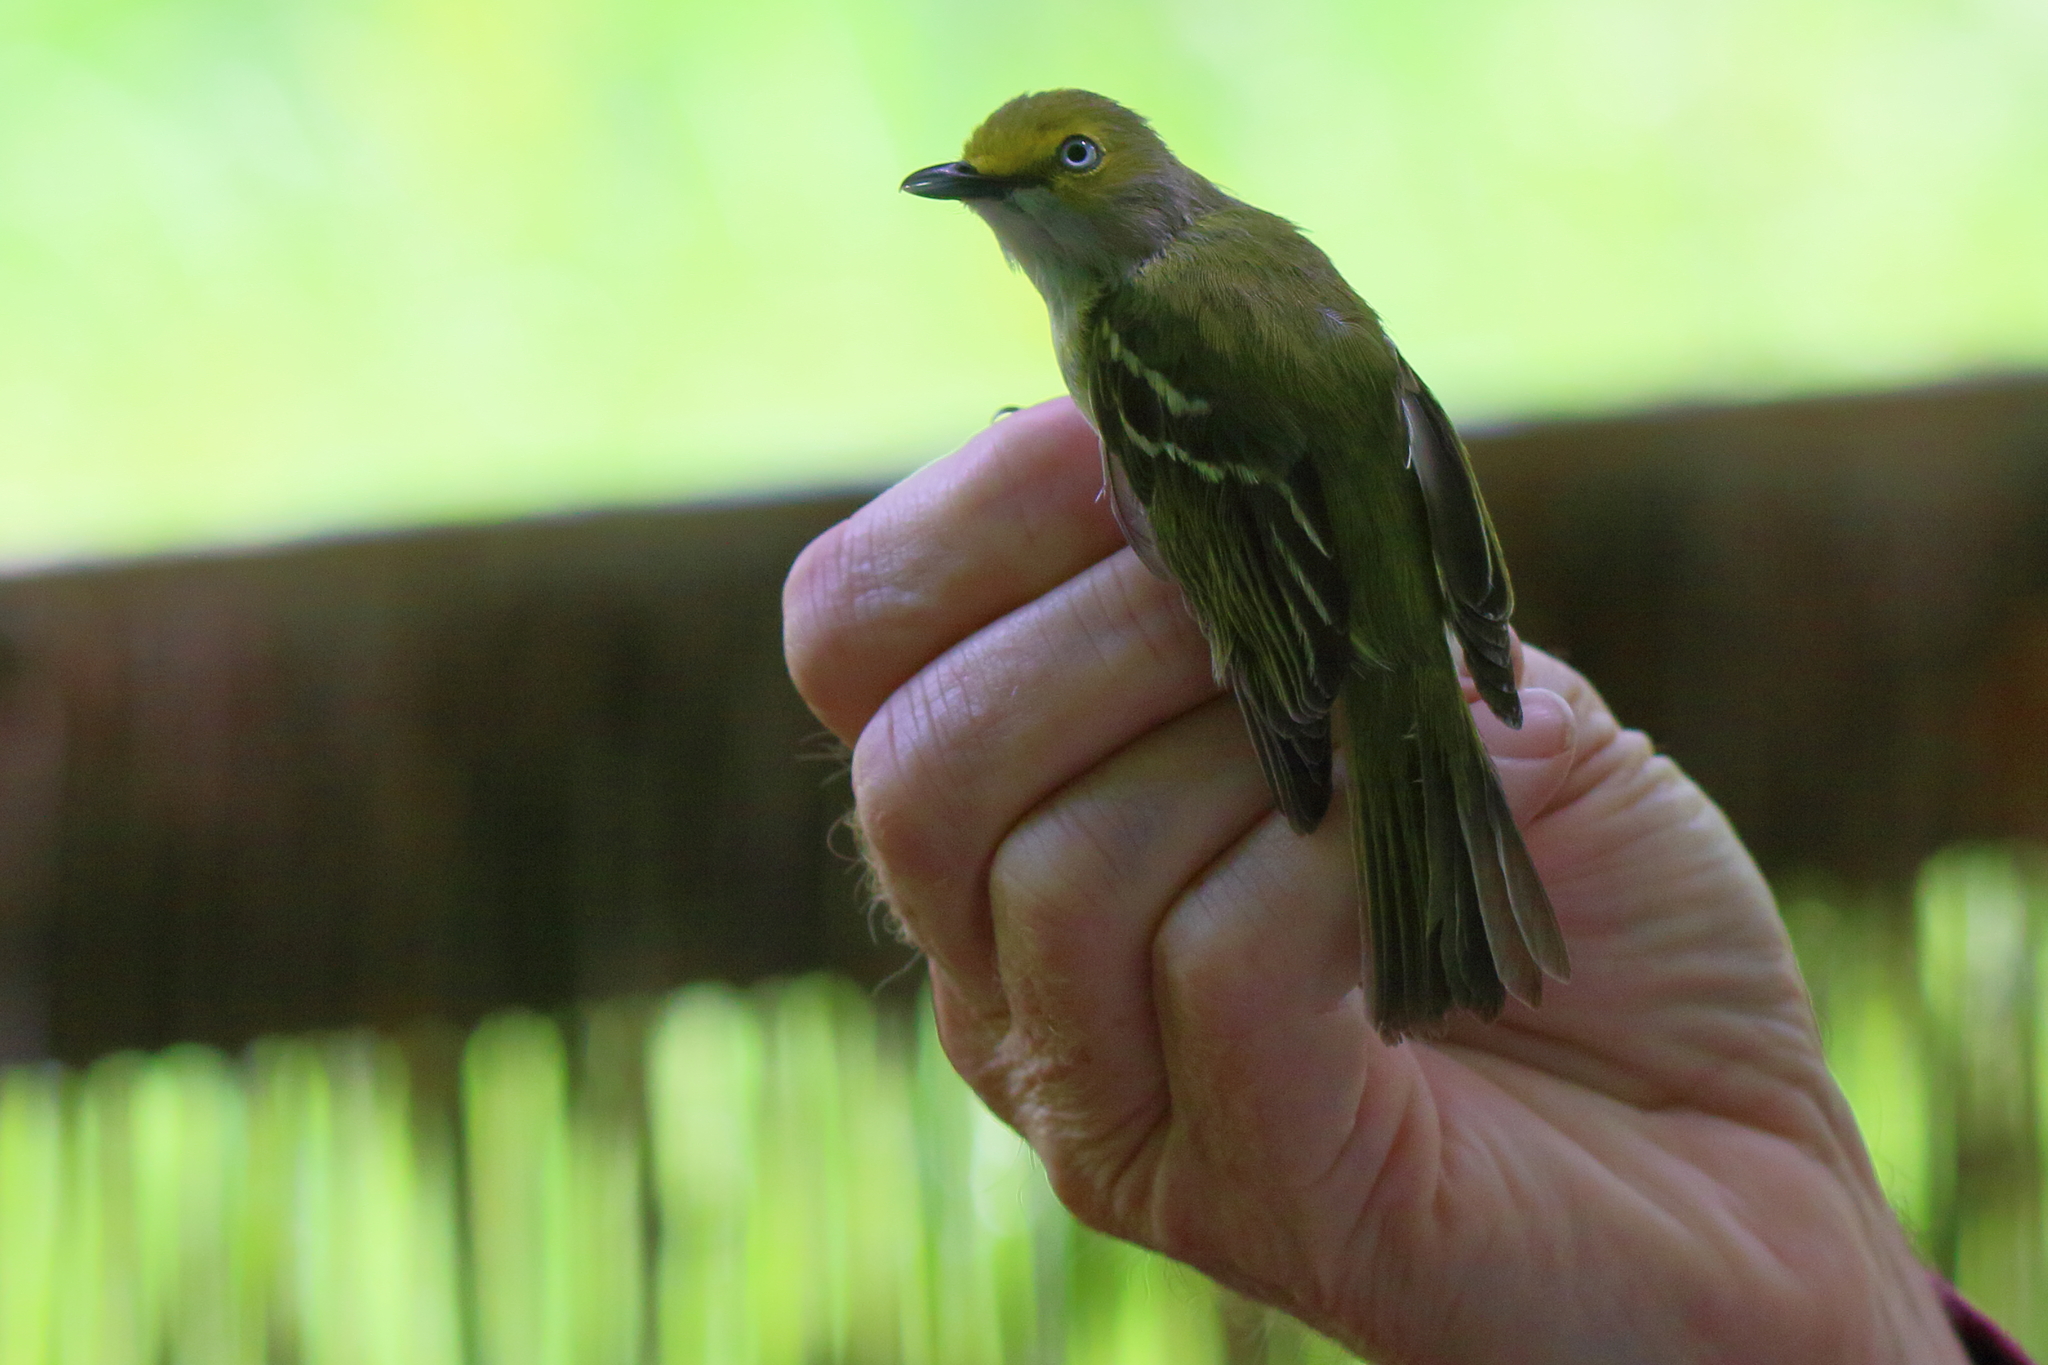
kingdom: Animalia
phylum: Chordata
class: Aves
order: Passeriformes
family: Vireonidae
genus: Vireo
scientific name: Vireo griseus
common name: White-eyed vireo
